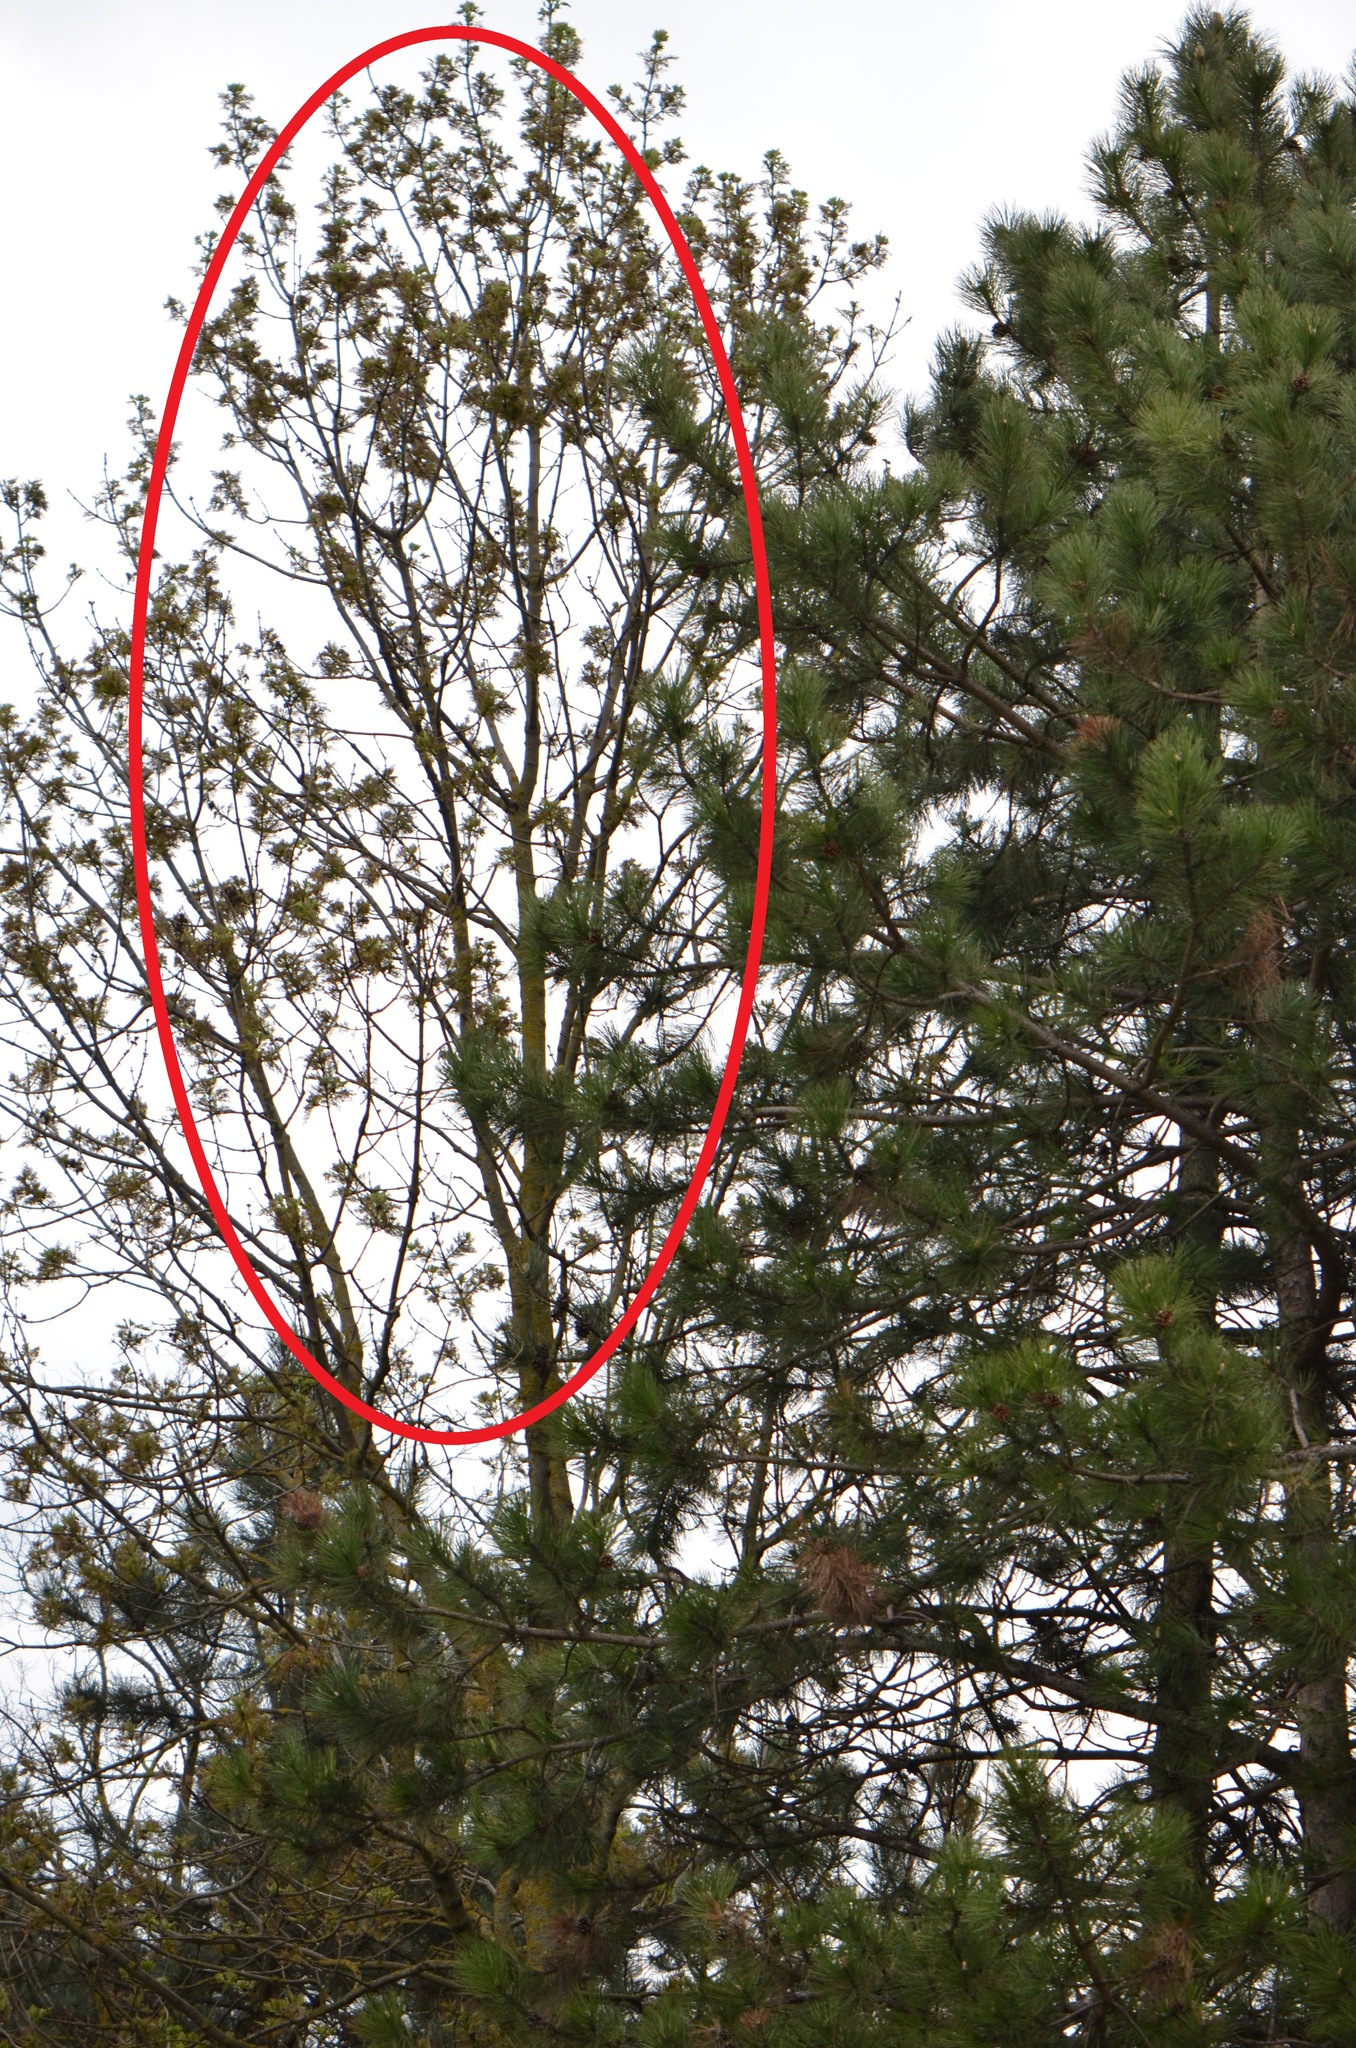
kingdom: Plantae
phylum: Tracheophyta
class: Magnoliopsida
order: Sapindales
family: Sapindaceae
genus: Acer
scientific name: Acer negundo
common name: Ashleaf maple
